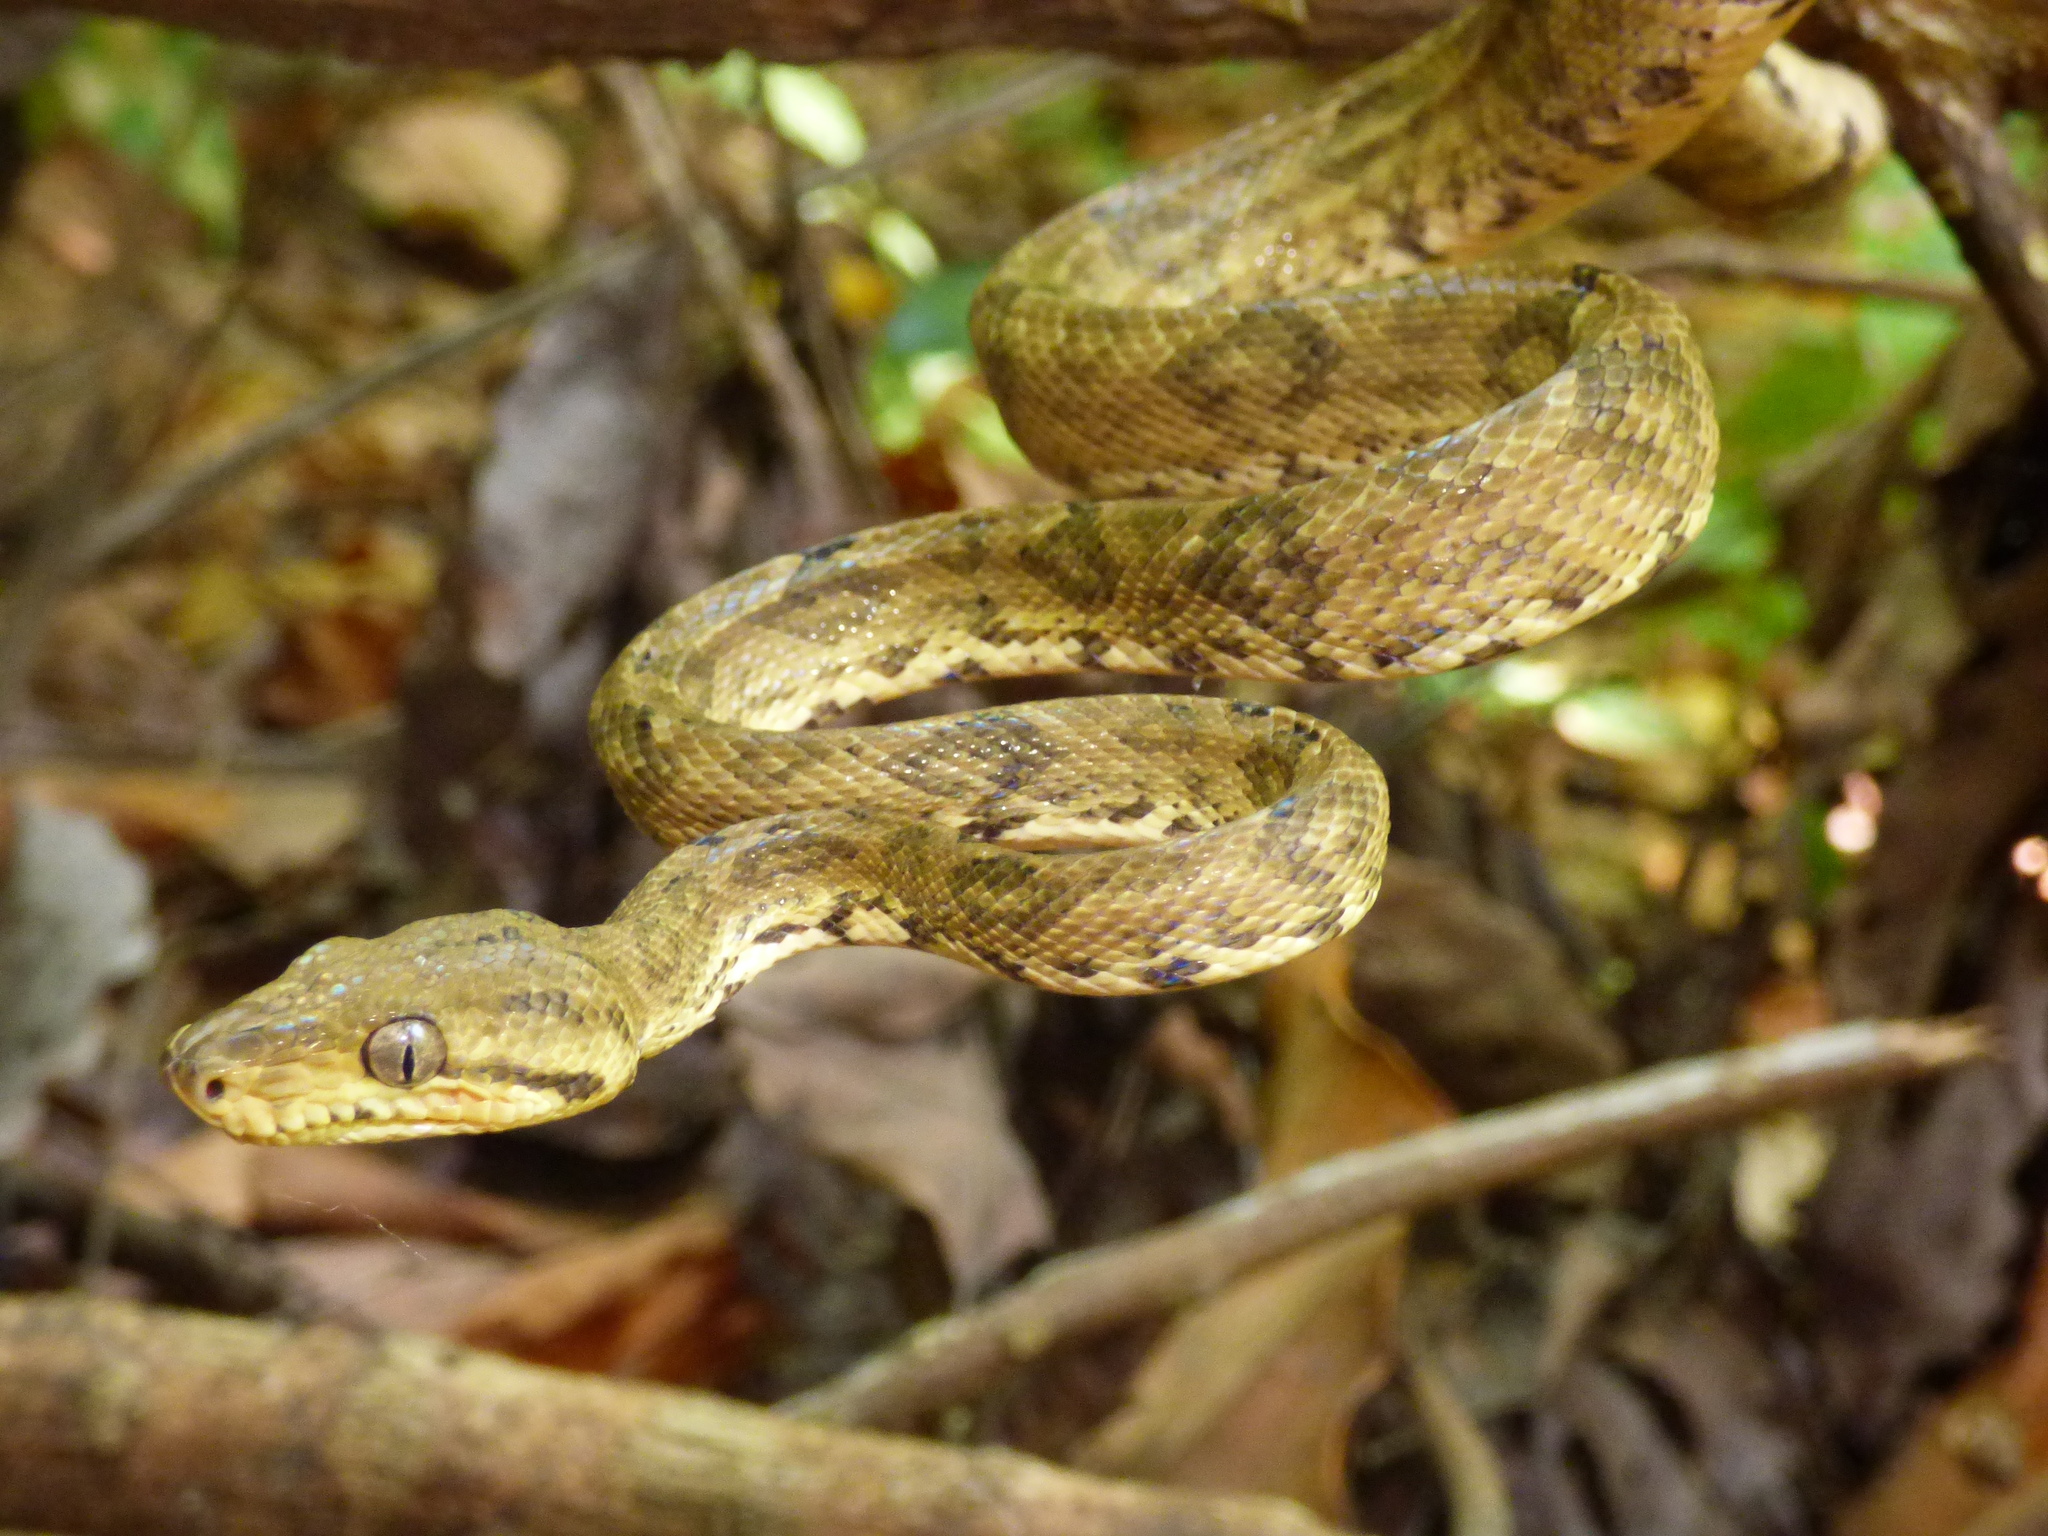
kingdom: Animalia
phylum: Chordata
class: Squamata
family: Boidae
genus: Corallus
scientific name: Corallus ruschenbergerii
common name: Dormilona
